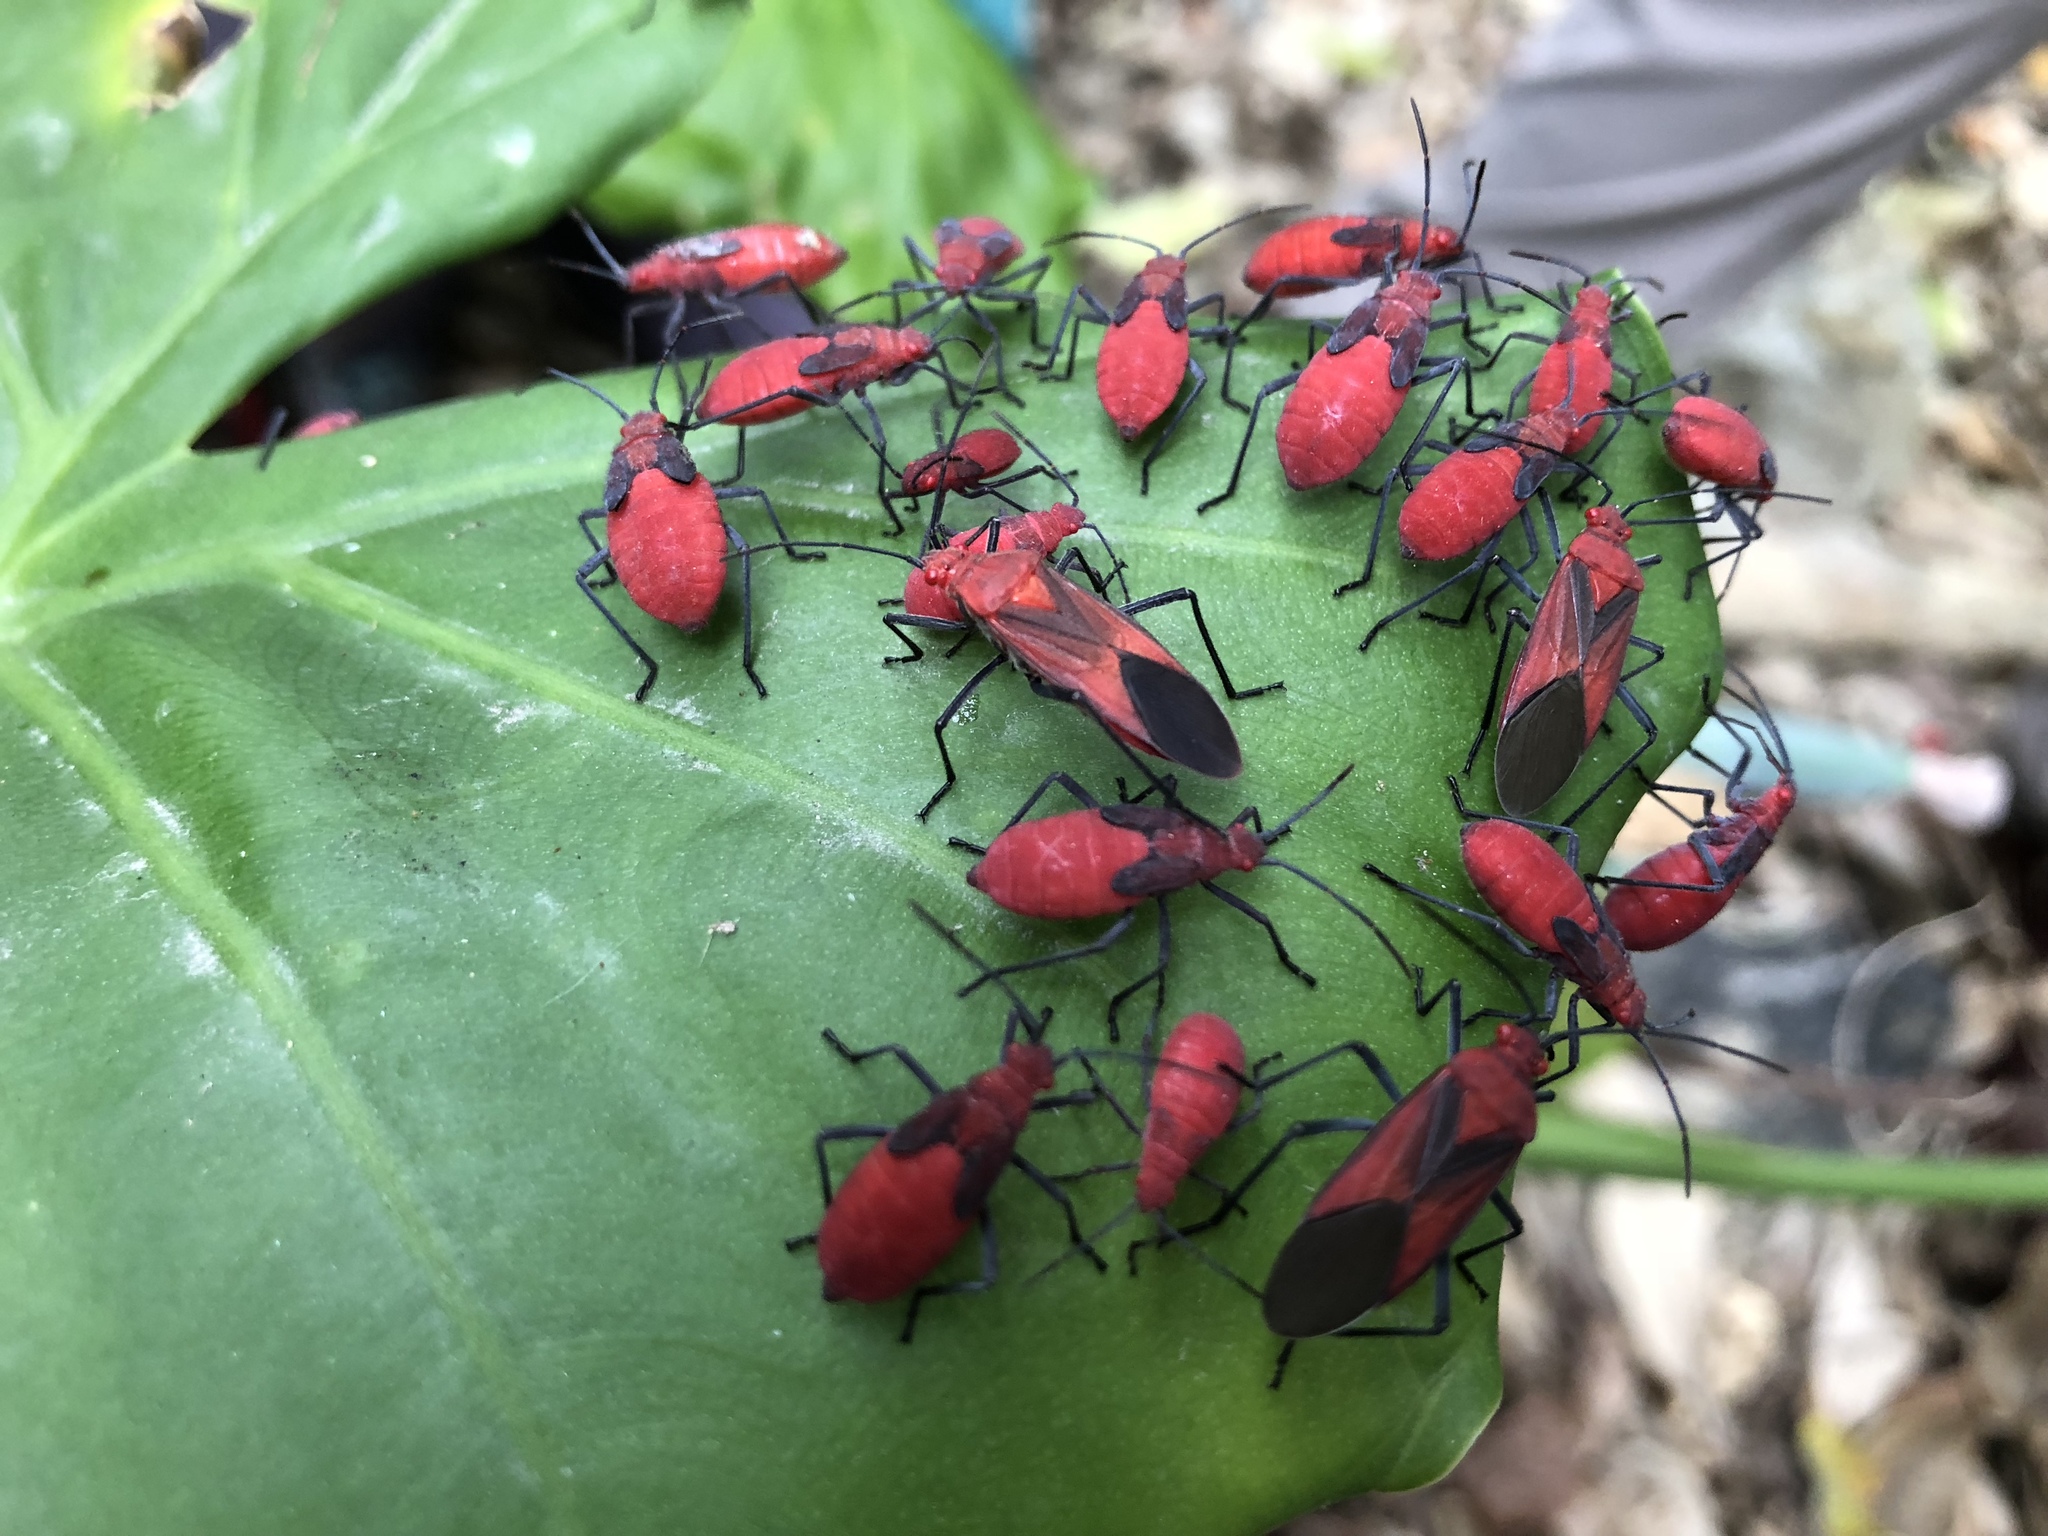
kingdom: Animalia
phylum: Arthropoda
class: Insecta
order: Hemiptera
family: Rhopalidae
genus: Leptocoris
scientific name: Leptocoris vicinus
